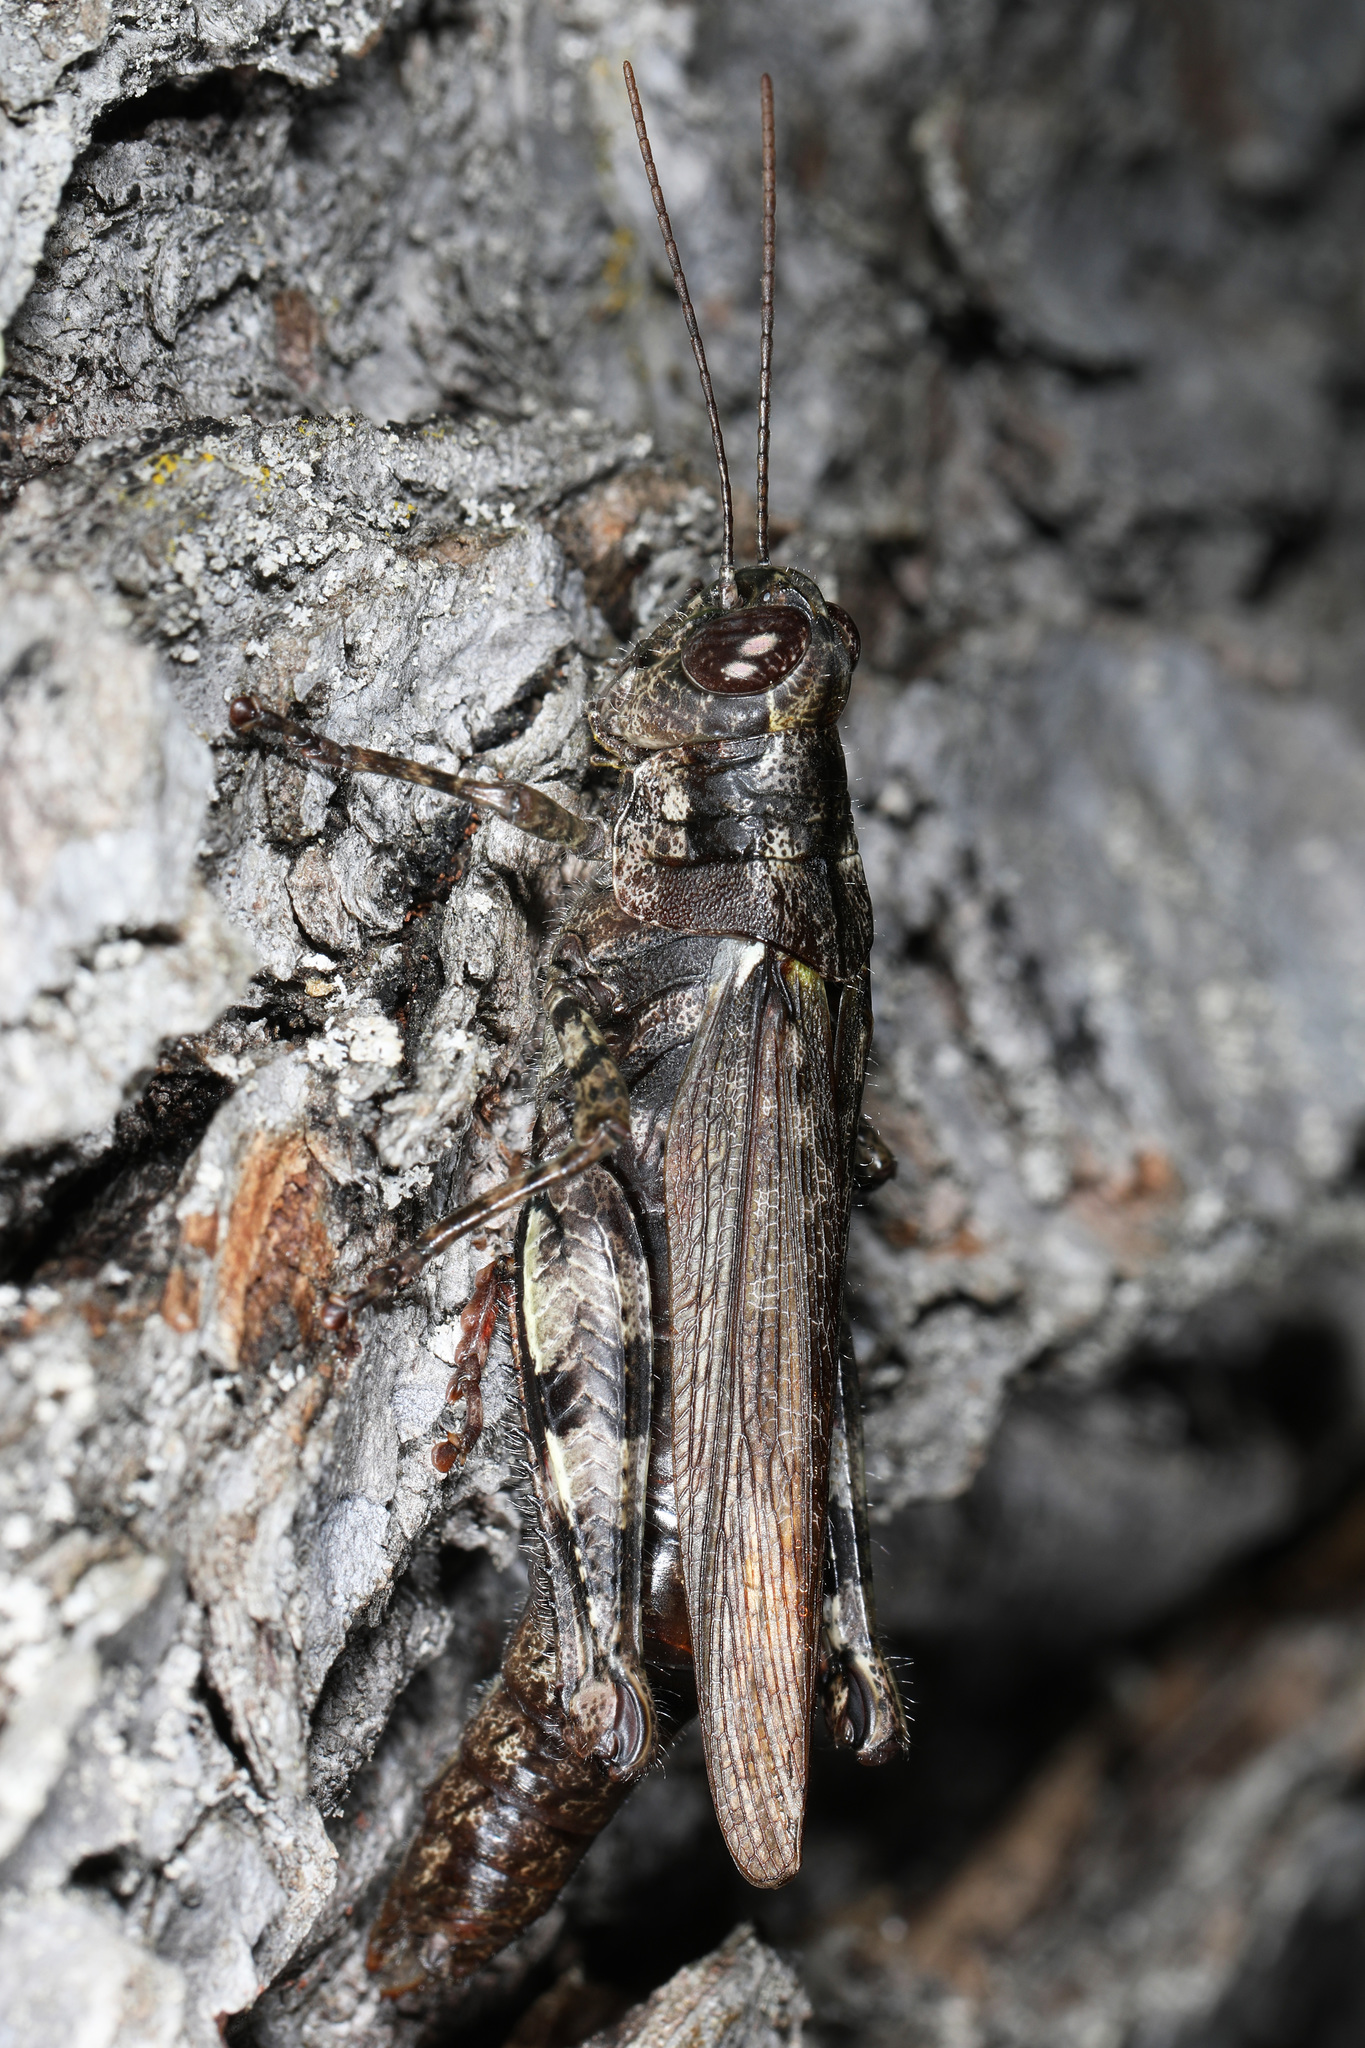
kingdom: Animalia
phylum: Arthropoda
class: Insecta
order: Orthoptera
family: Acrididae
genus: Melanoplus
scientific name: Melanoplus punctulatus
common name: Pine-tree spur-throat grasshopper
